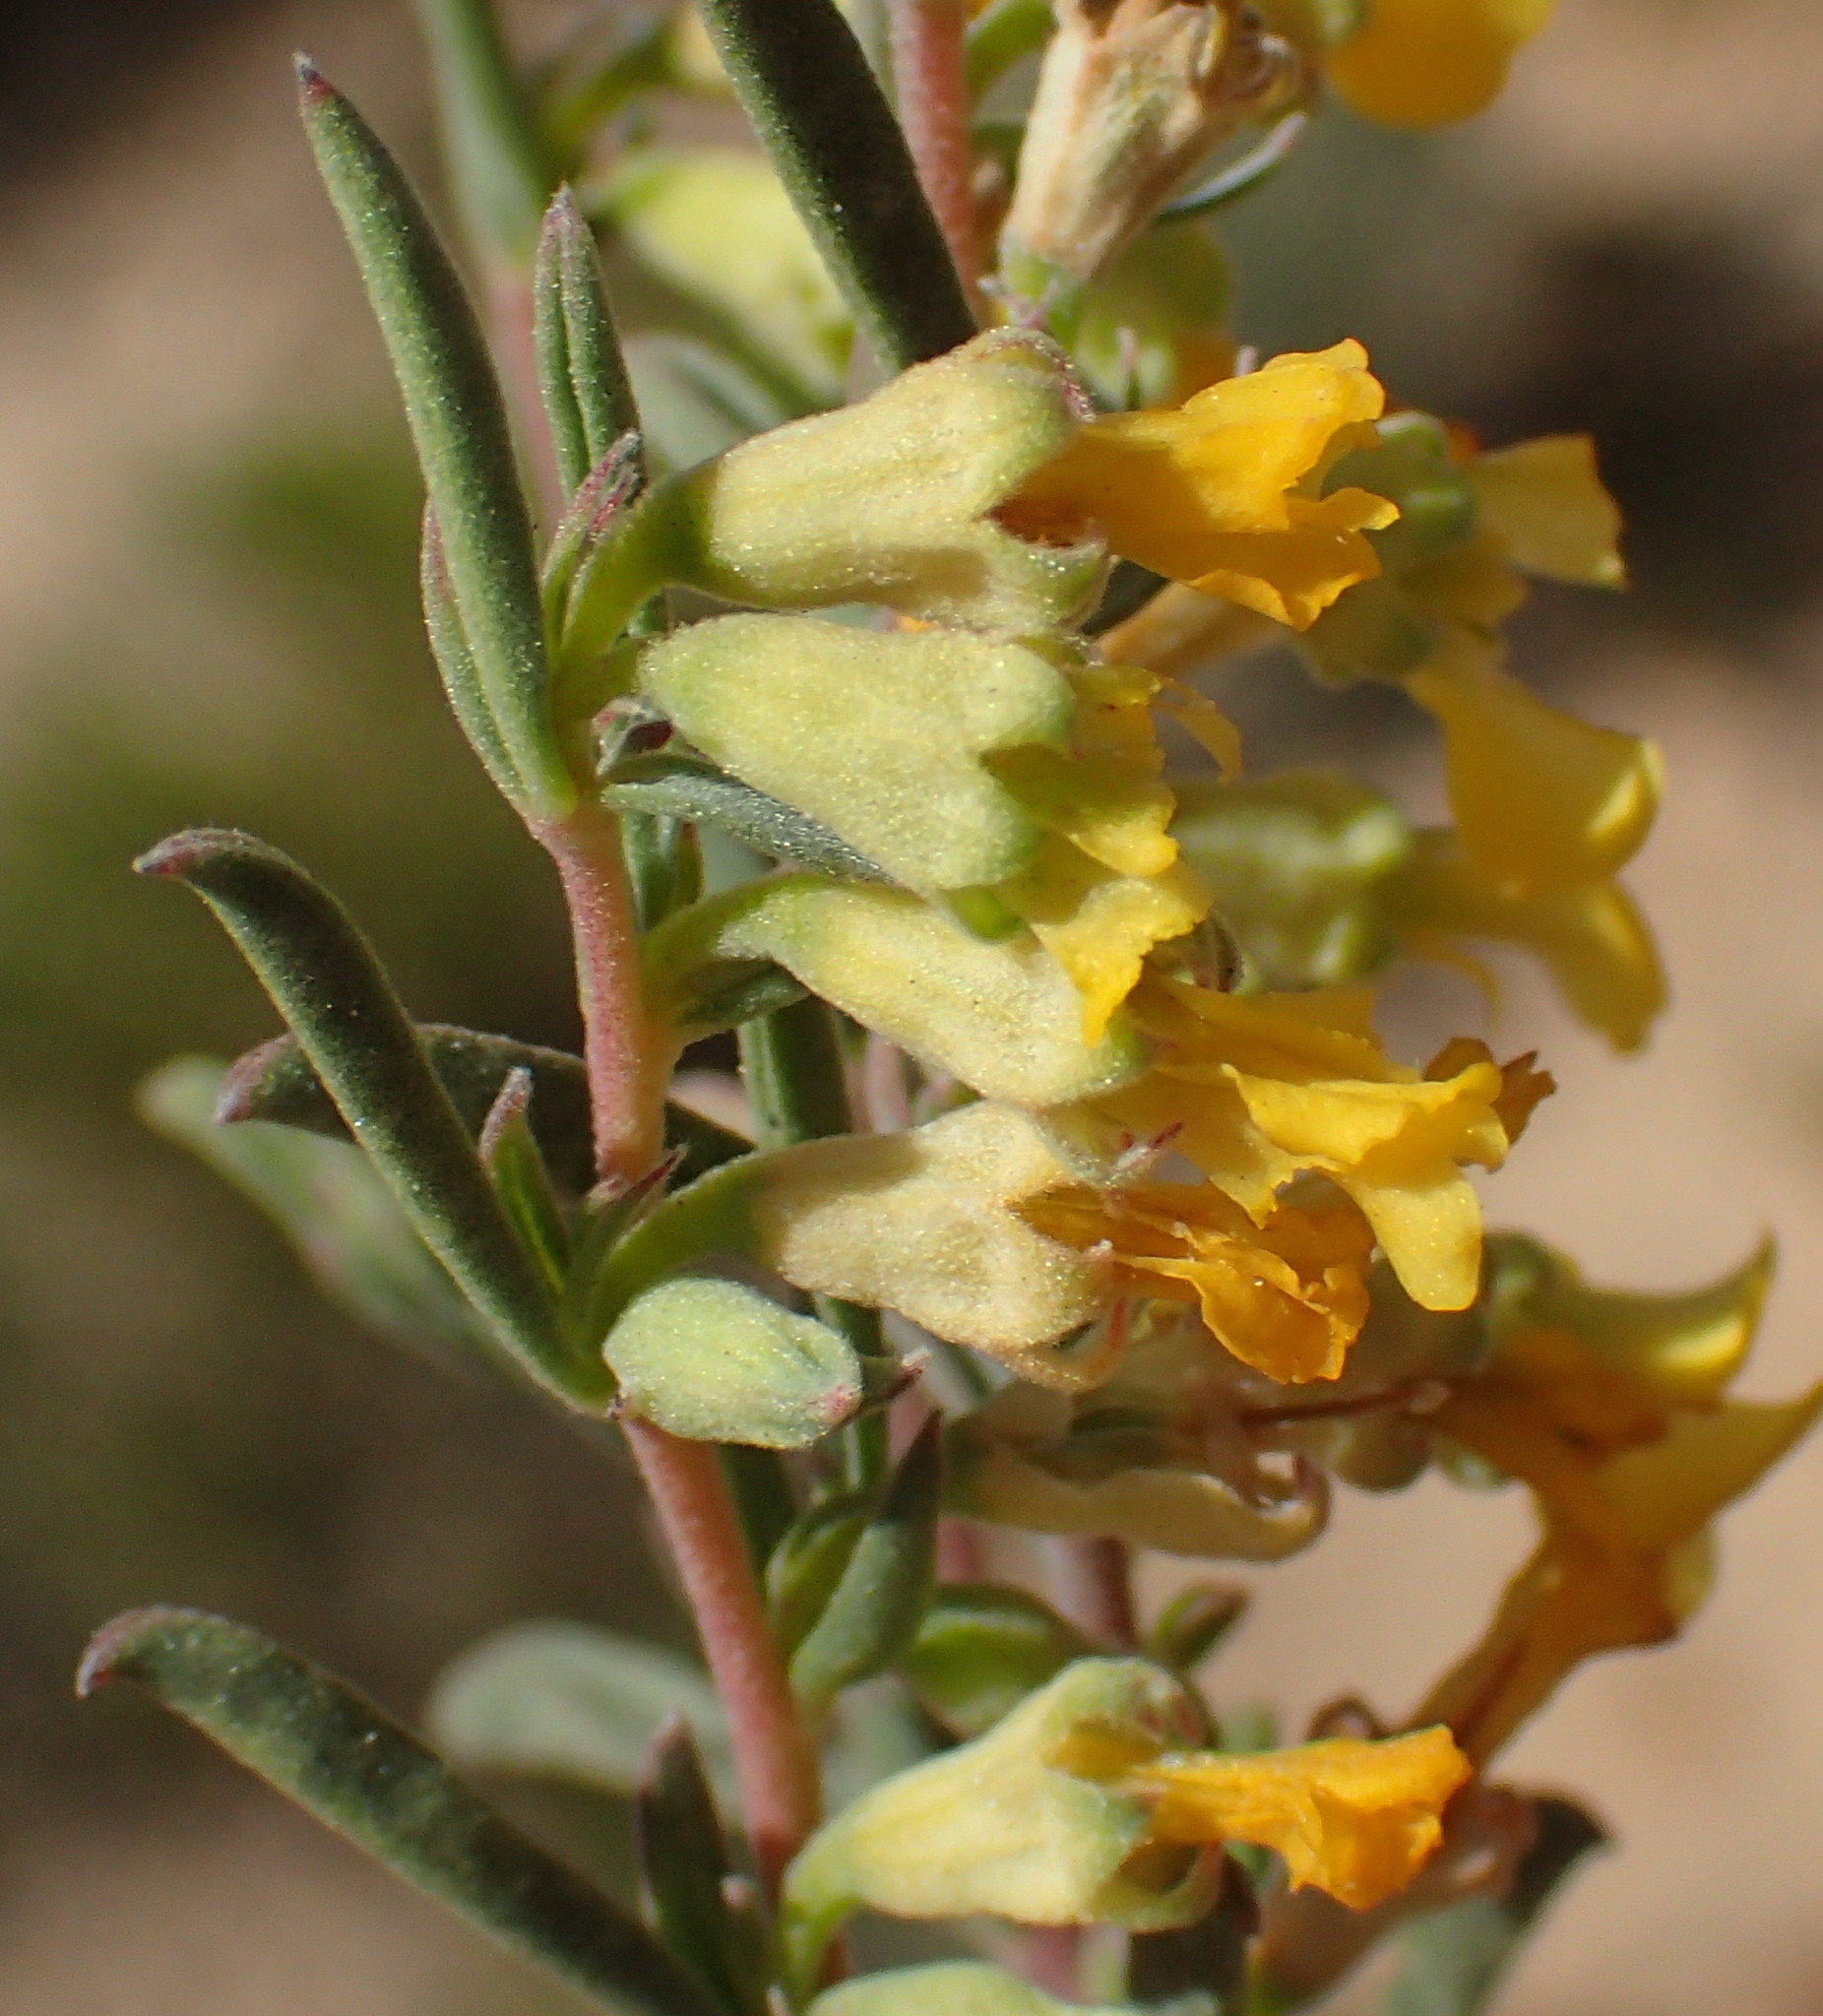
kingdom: Plantae
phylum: Tracheophyta
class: Magnoliopsida
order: Malvales
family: Malvaceae
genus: Hermannia
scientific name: Hermannia diversistipula
